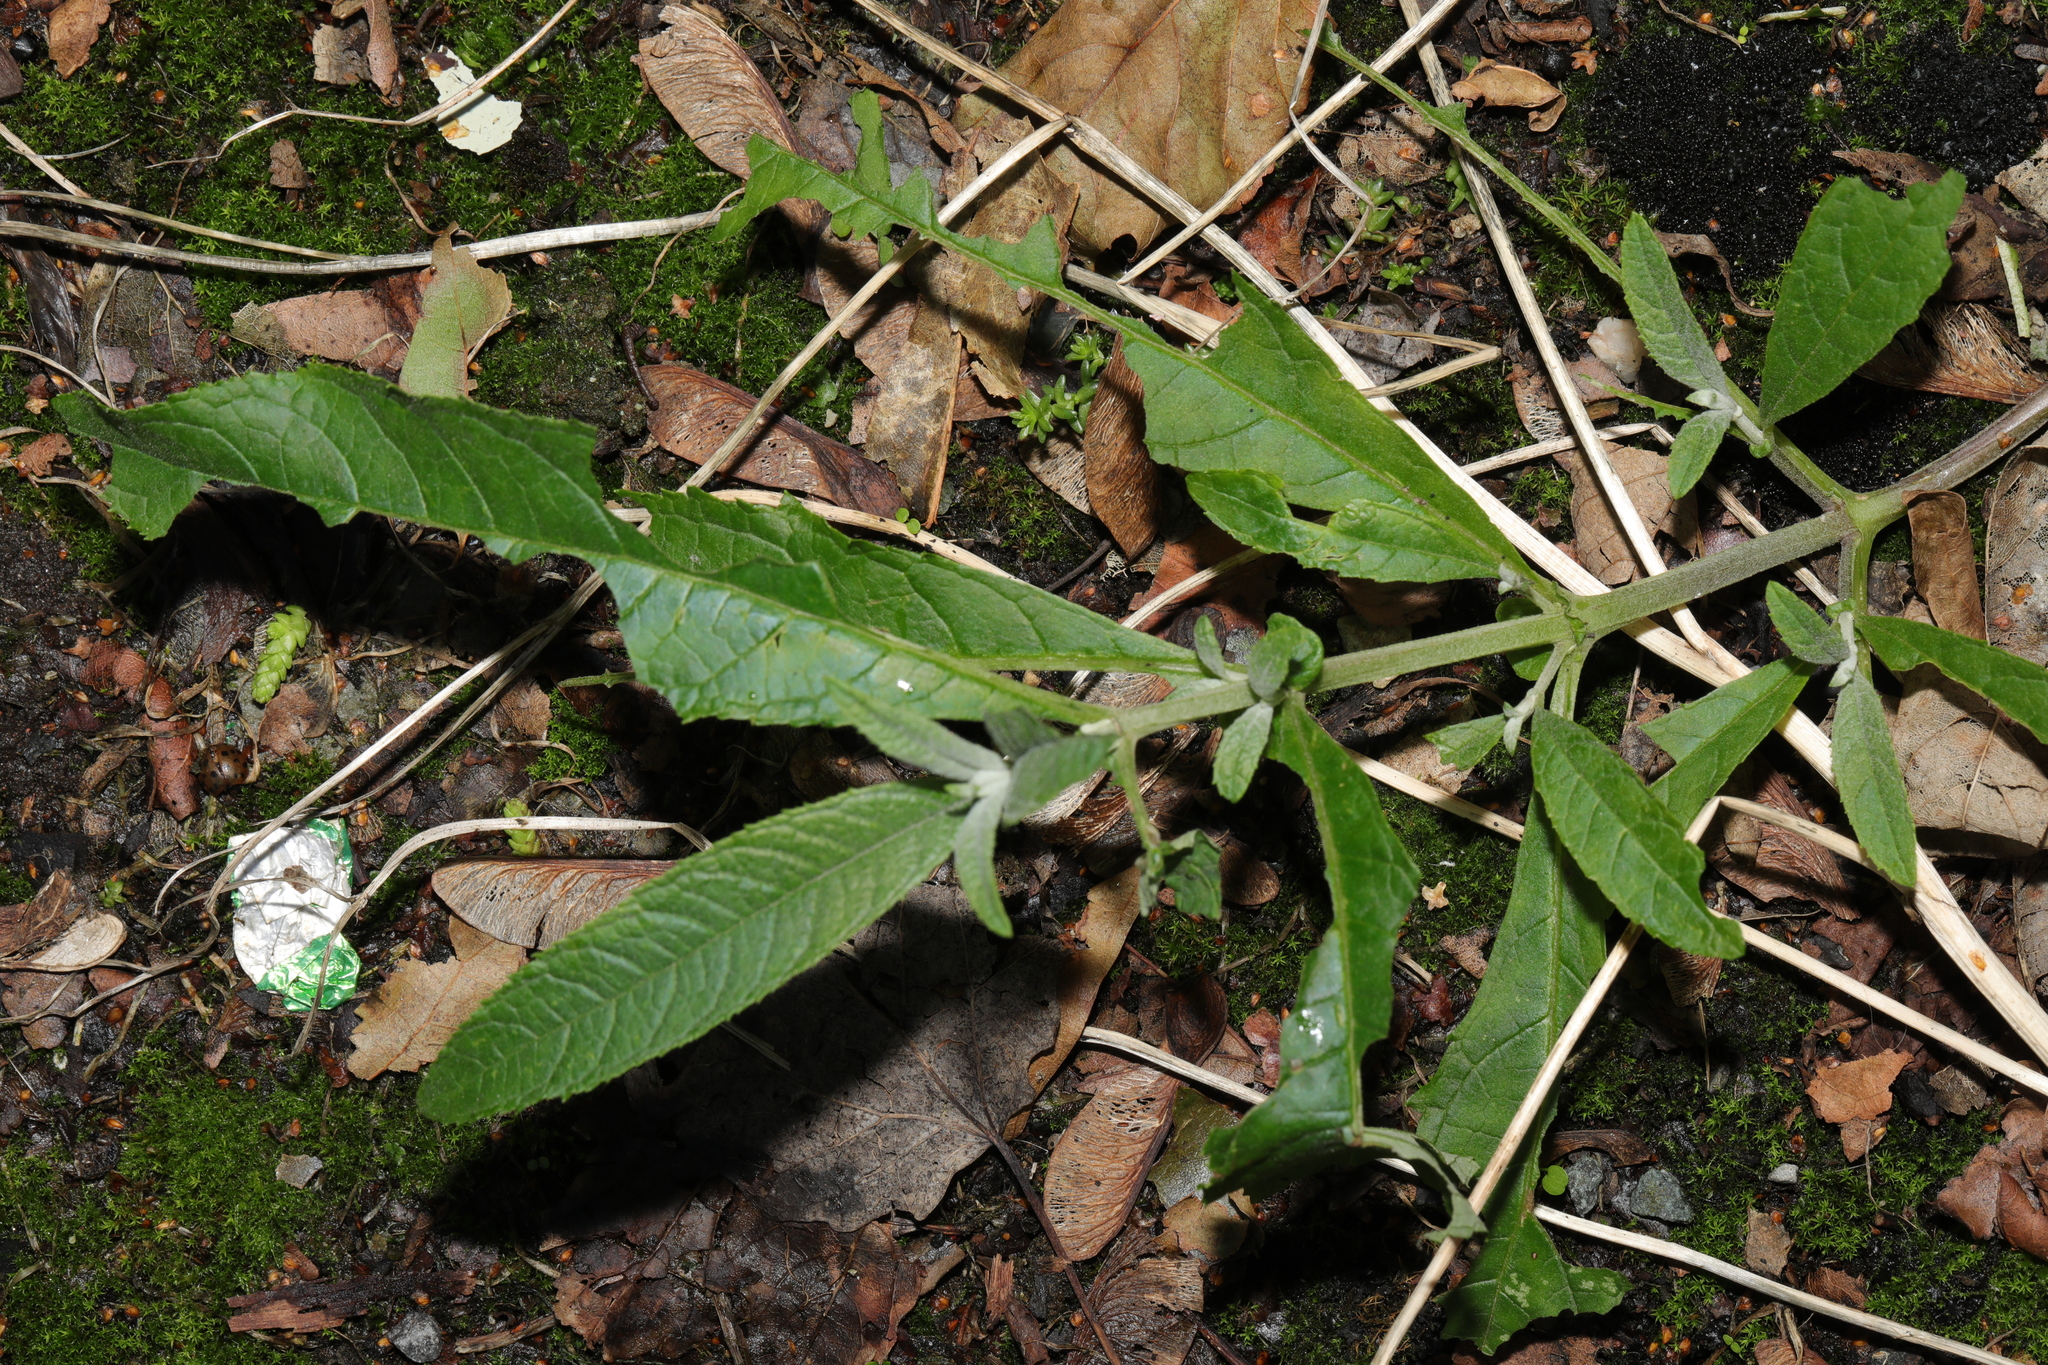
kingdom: Plantae
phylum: Tracheophyta
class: Magnoliopsida
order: Lamiales
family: Scrophulariaceae
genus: Buddleja
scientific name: Buddleja davidii
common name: Butterfly-bush
